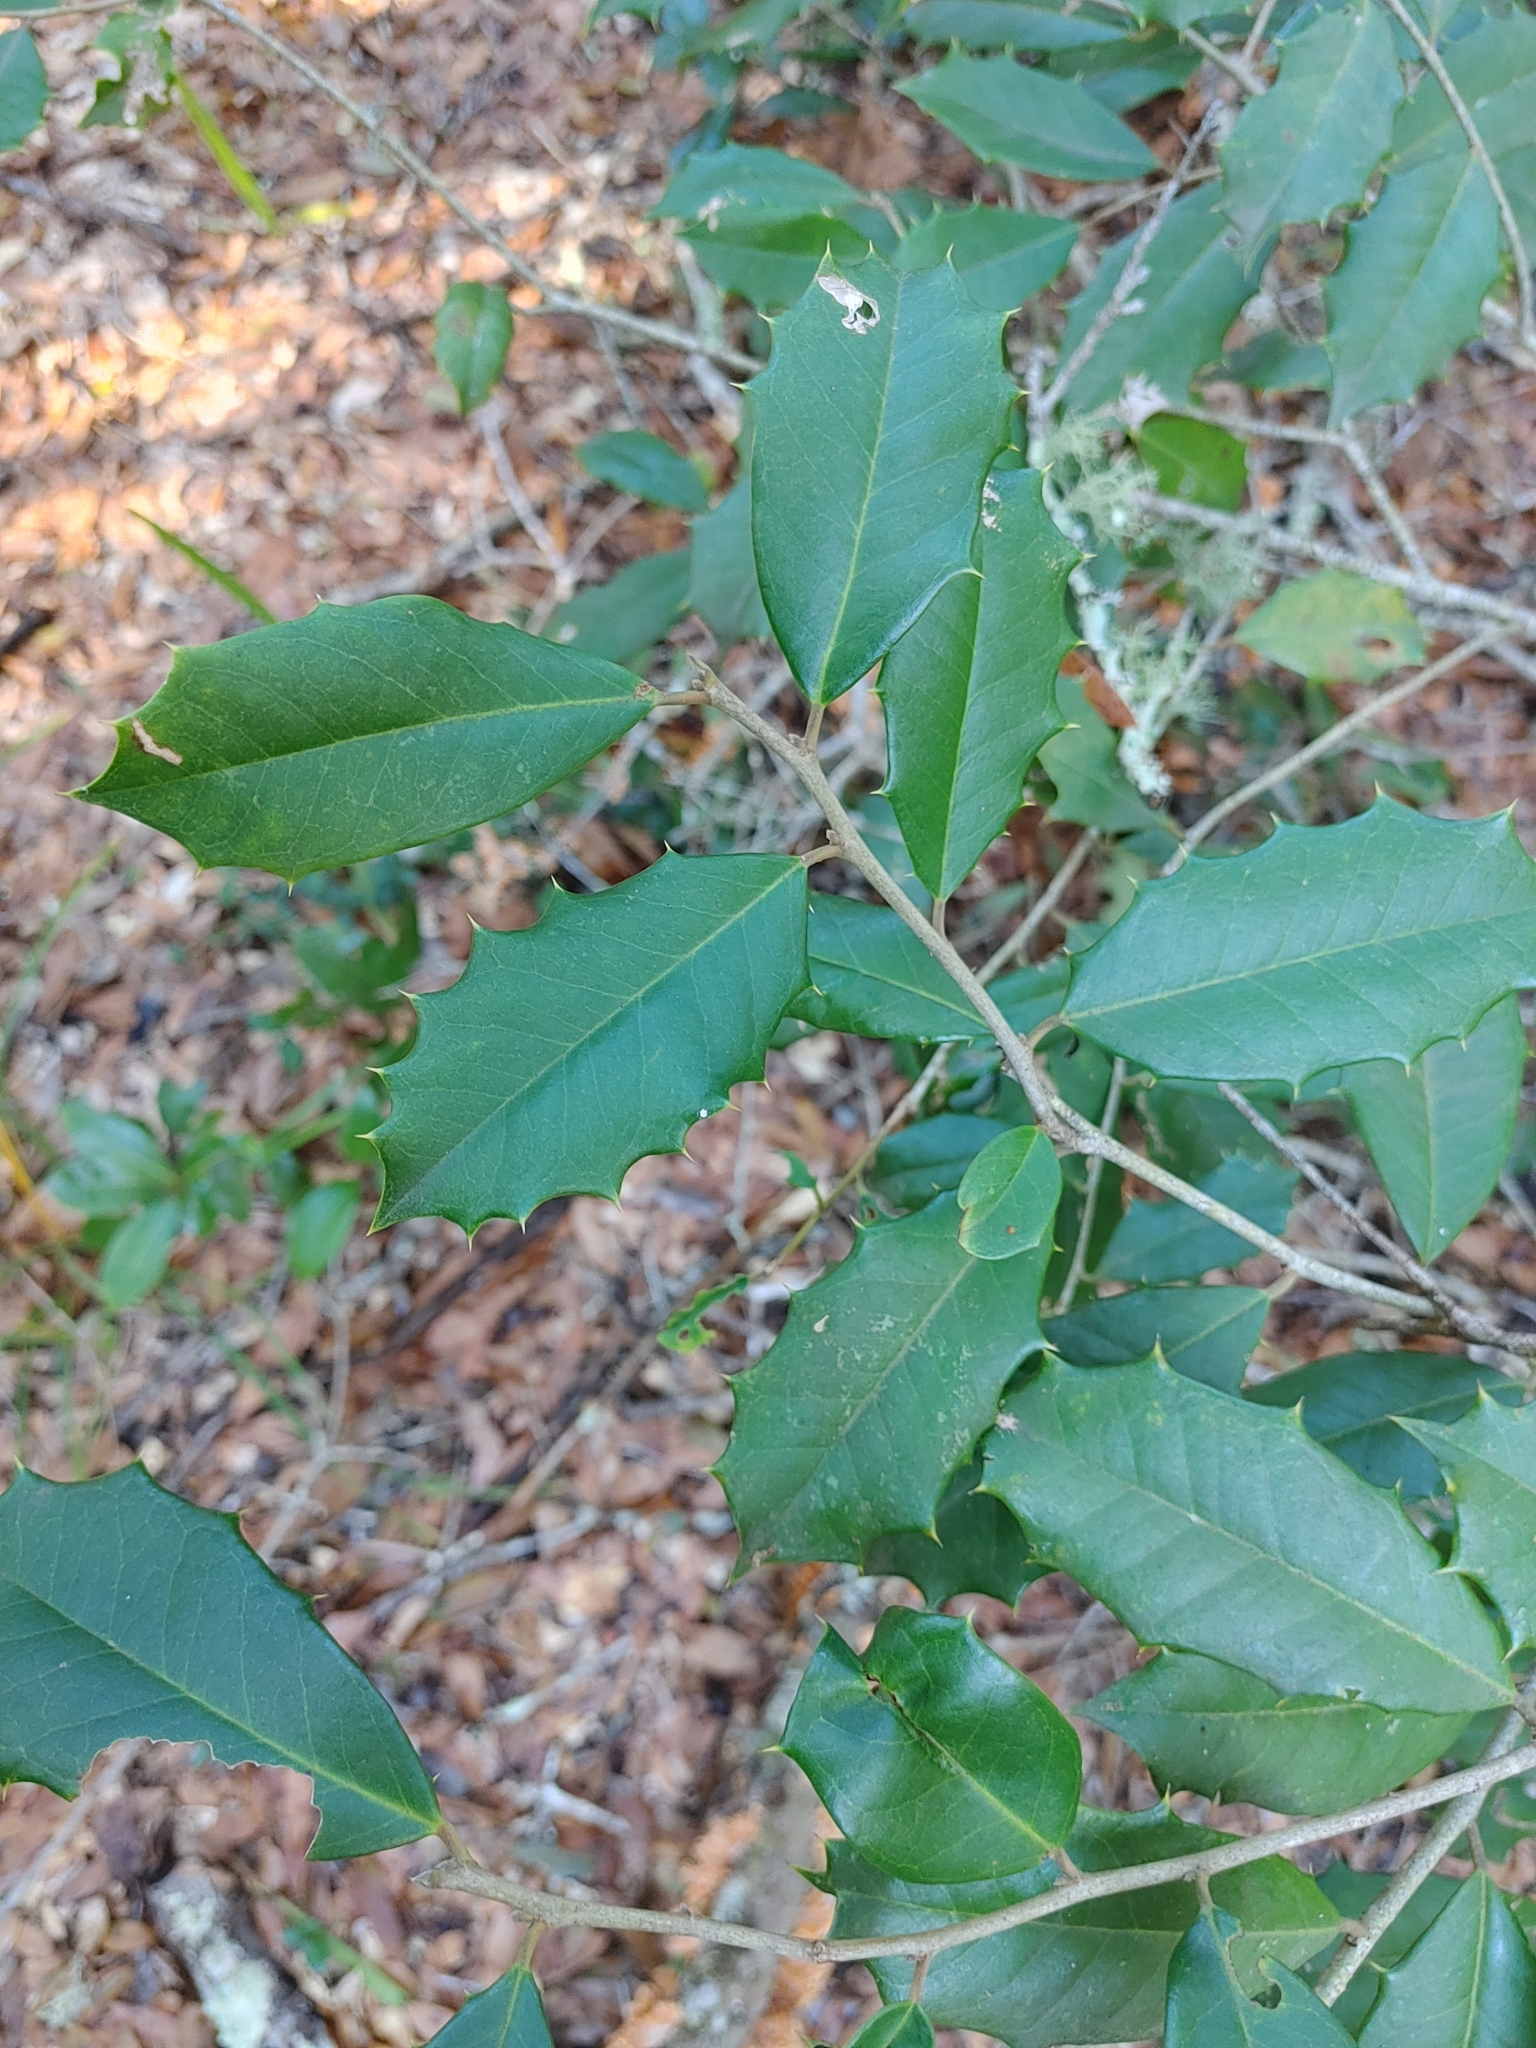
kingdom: Plantae
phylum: Tracheophyta
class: Magnoliopsida
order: Aquifoliales
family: Aquifoliaceae
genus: Ilex
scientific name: Ilex opaca
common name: American holly
